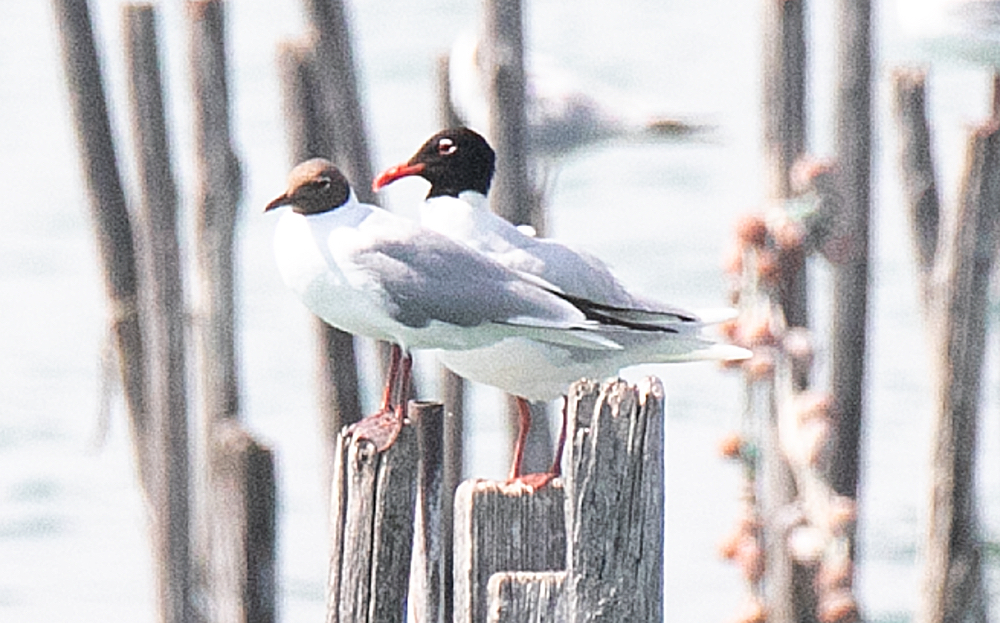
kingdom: Animalia
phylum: Chordata
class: Aves
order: Charadriiformes
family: Laridae
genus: Ichthyaetus
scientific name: Ichthyaetus melanocephalus
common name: Mediterranean gull
